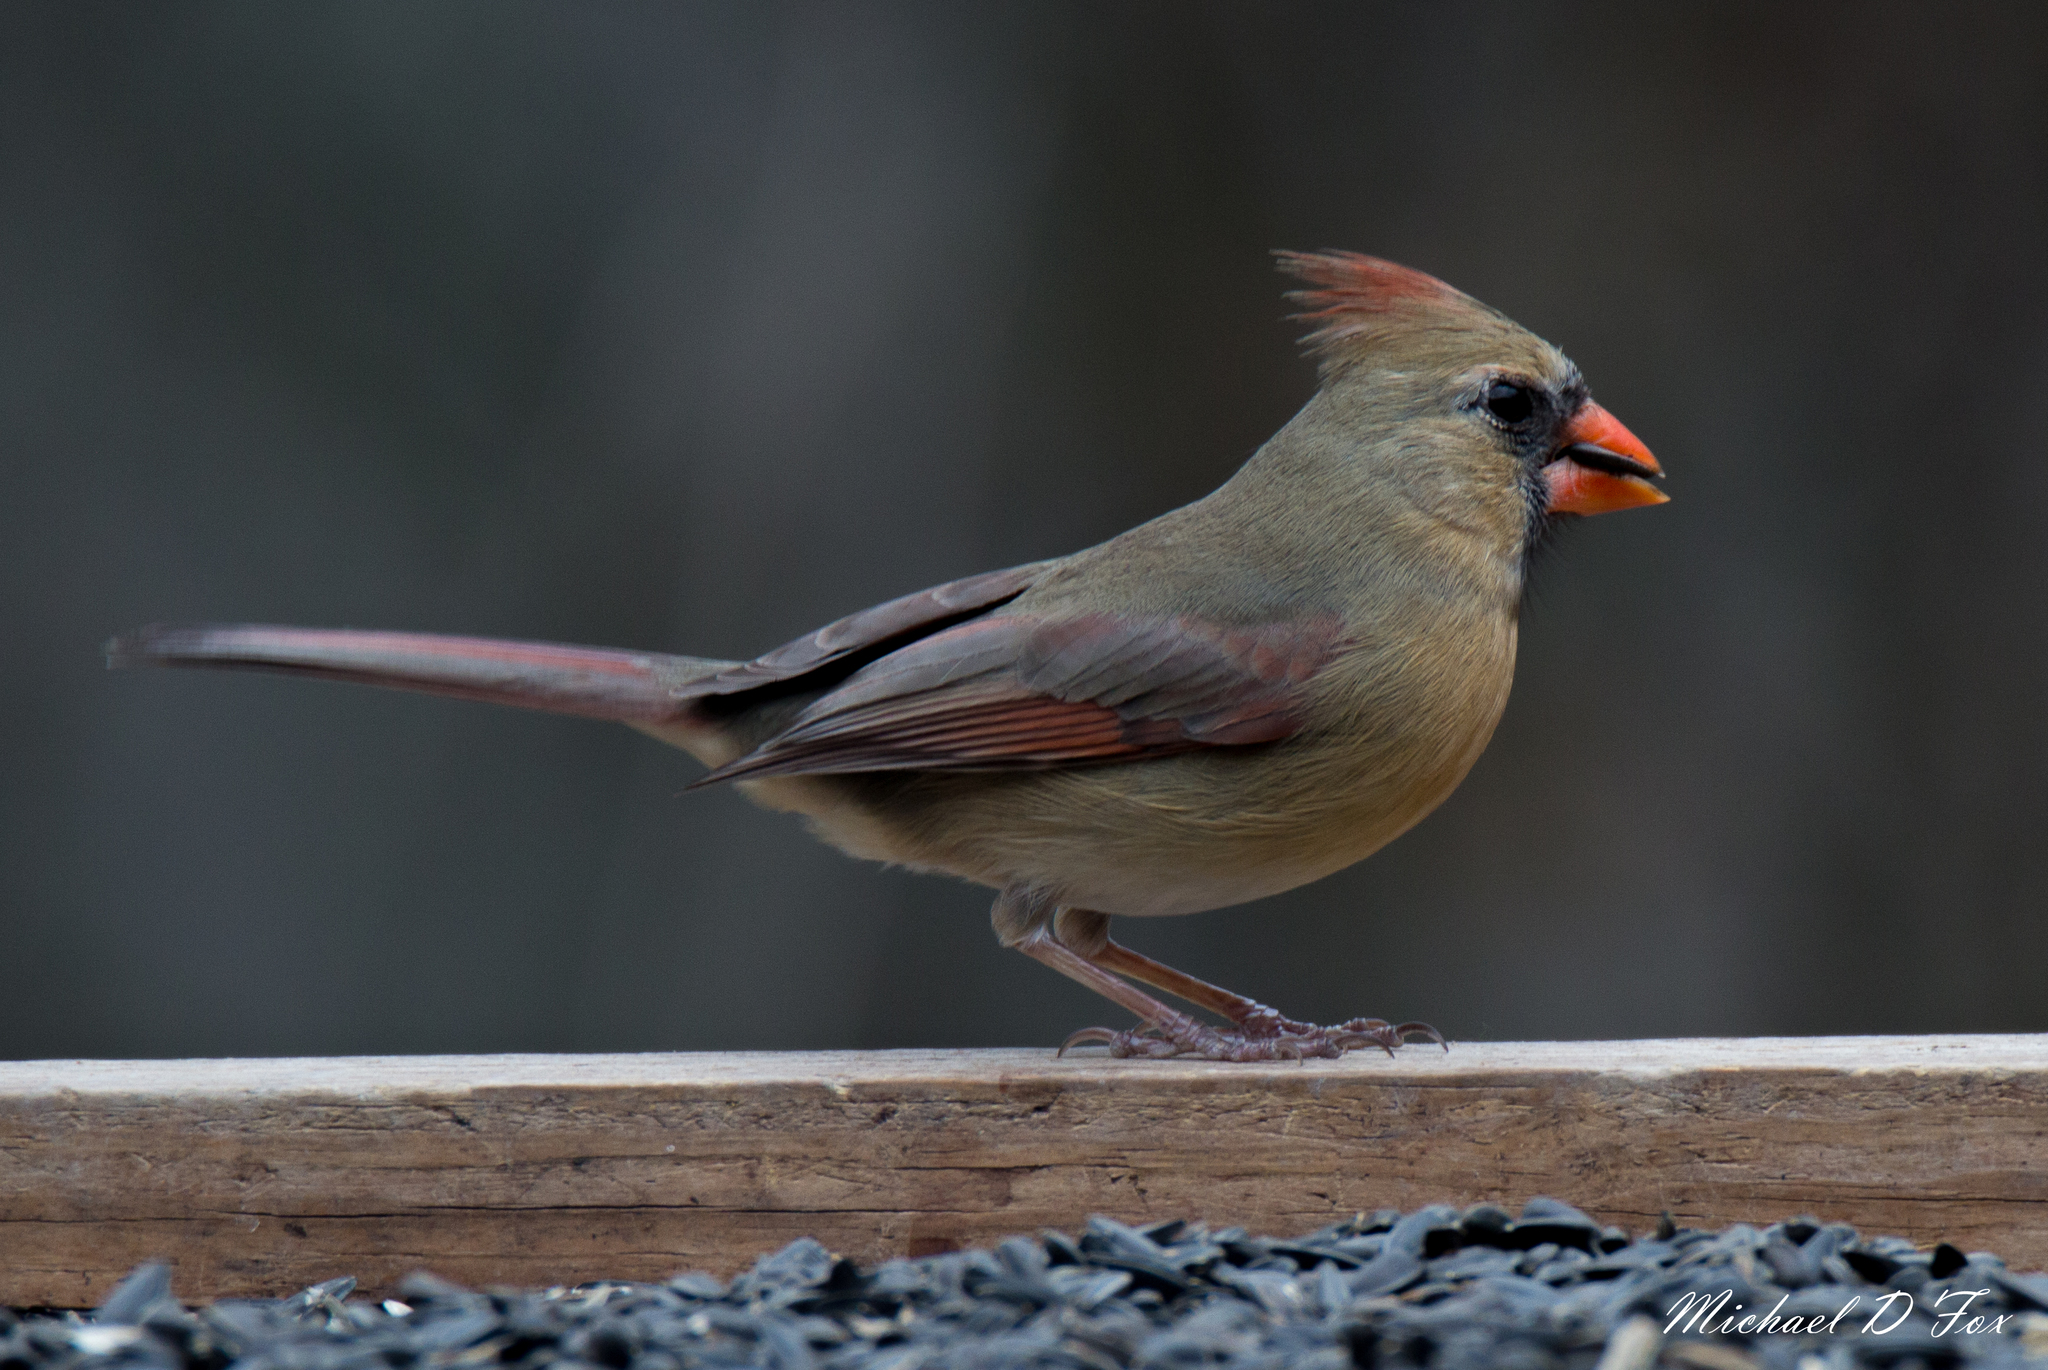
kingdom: Animalia
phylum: Chordata
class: Aves
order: Passeriformes
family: Cardinalidae
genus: Cardinalis
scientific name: Cardinalis cardinalis
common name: Northern cardinal
